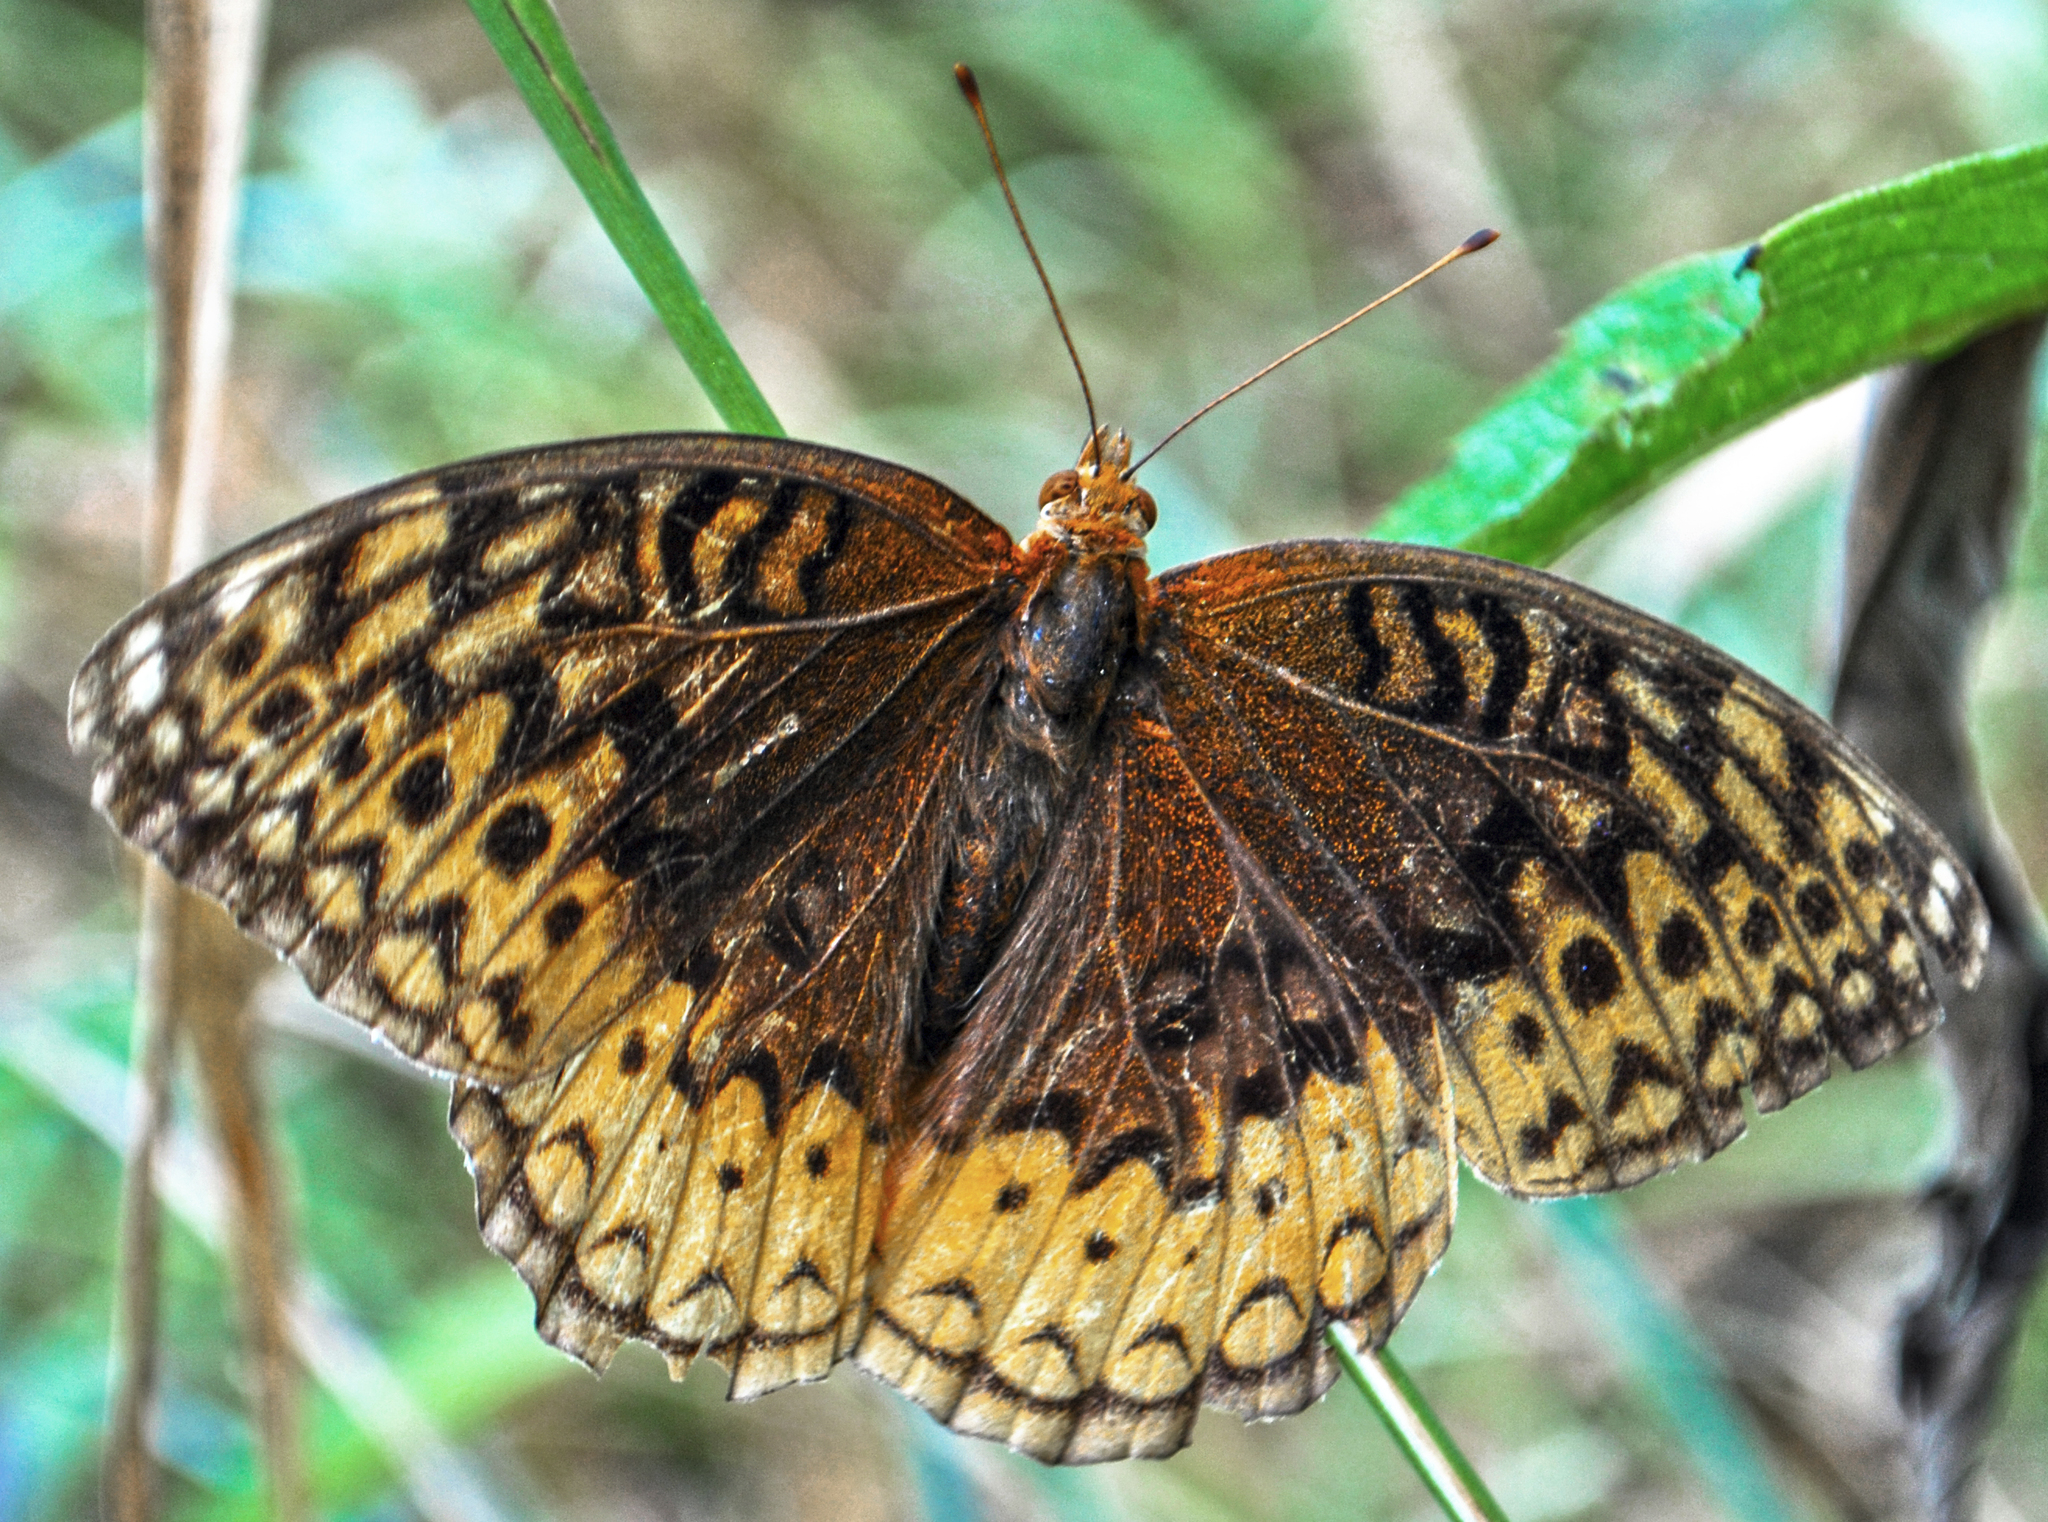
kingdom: Animalia
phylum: Arthropoda
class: Insecta
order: Lepidoptera
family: Nymphalidae
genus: Speyeria
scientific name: Speyeria cybele
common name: Great spangled fritillary
